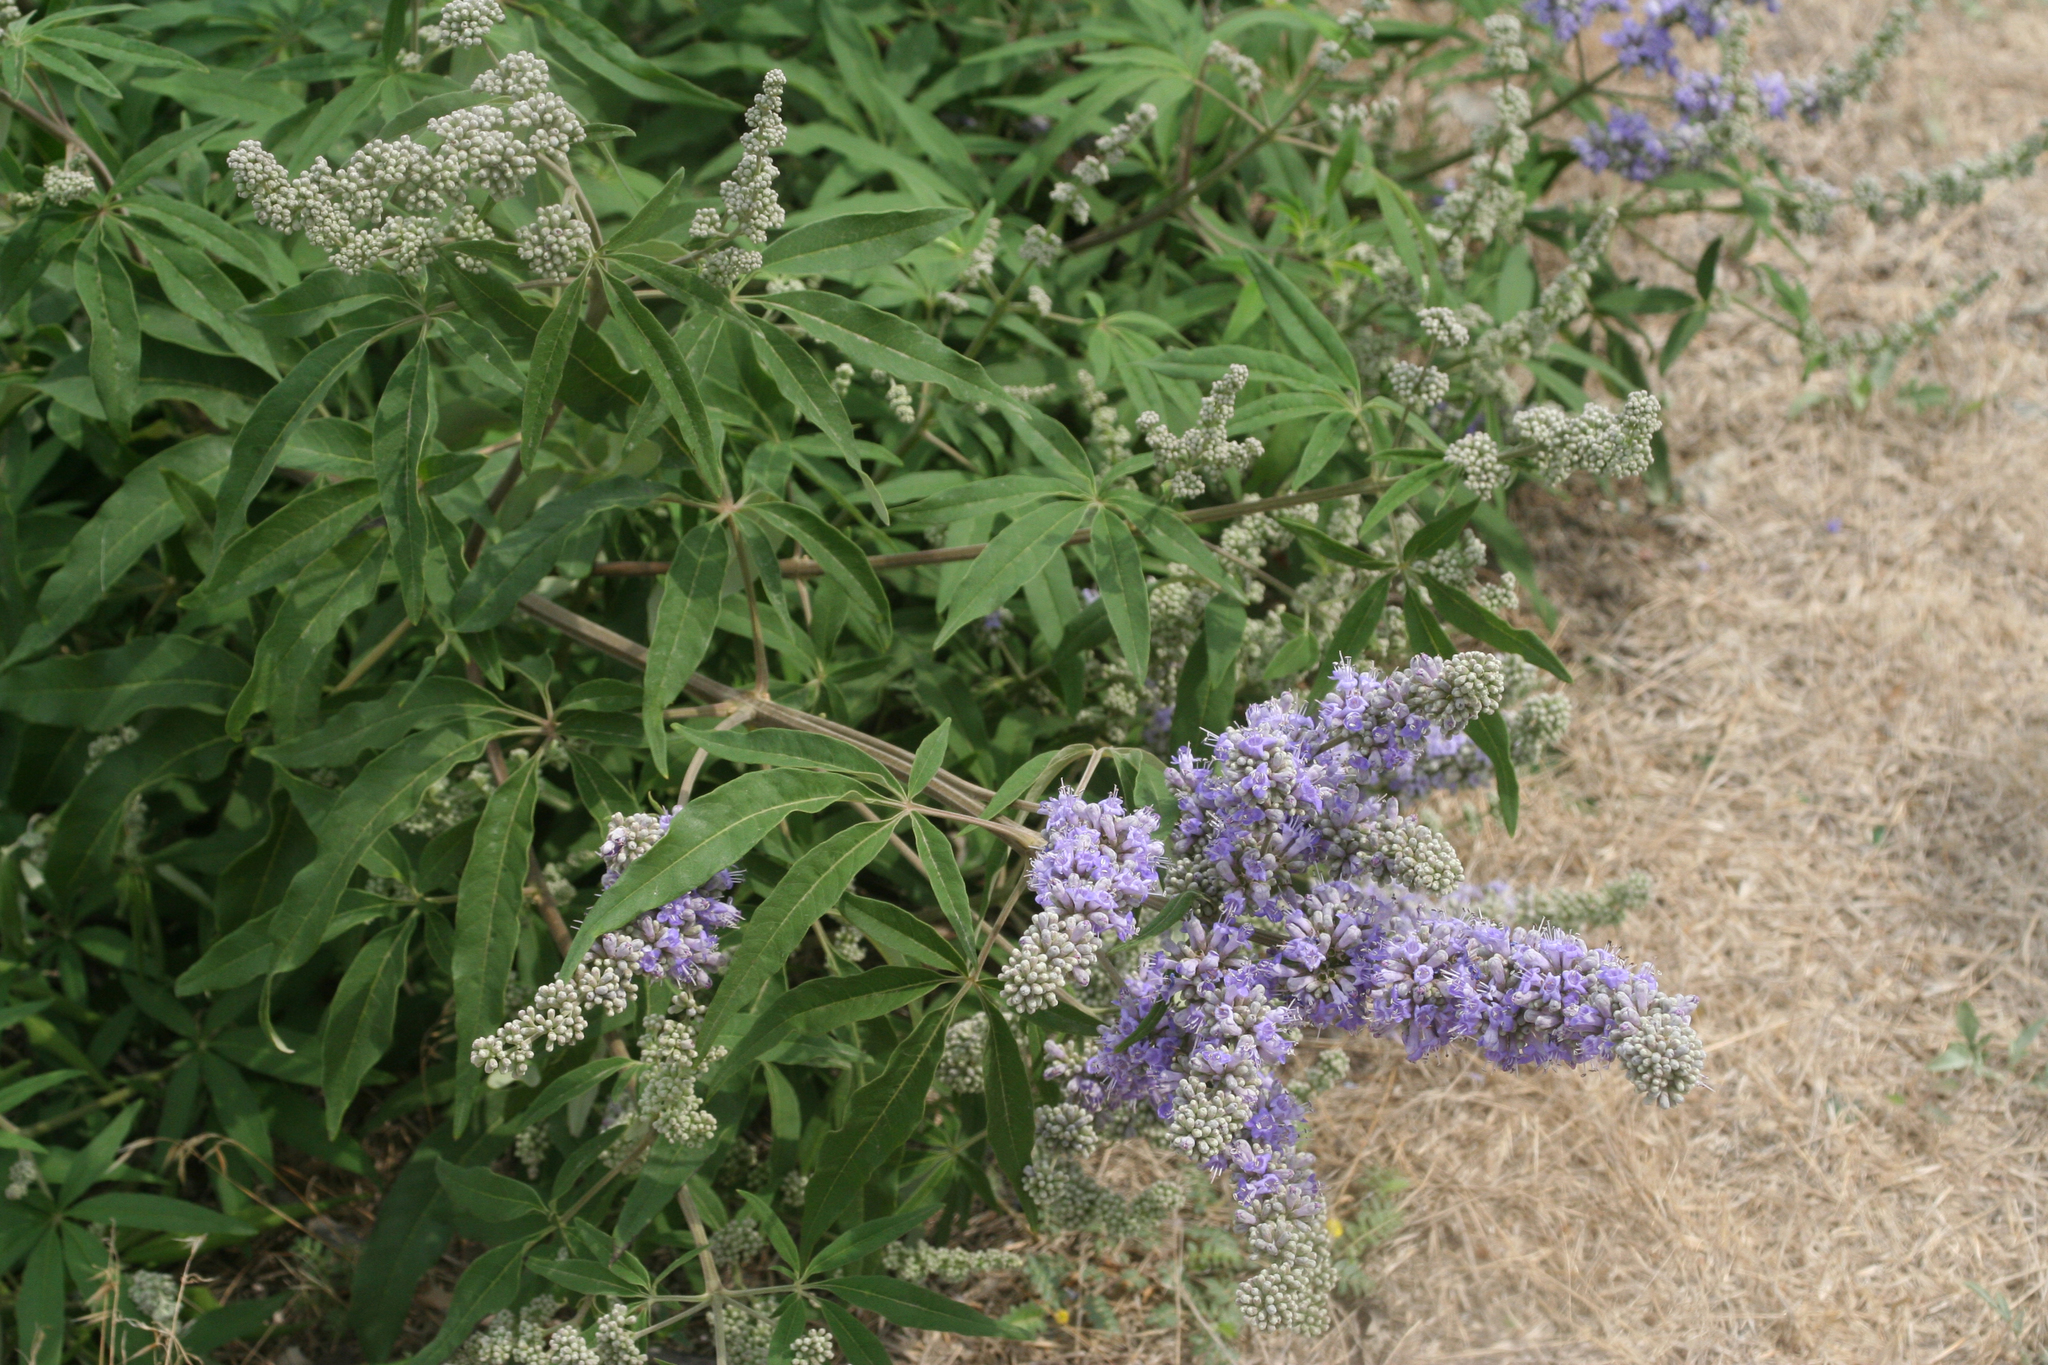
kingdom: Plantae
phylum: Tracheophyta
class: Magnoliopsida
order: Lamiales
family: Lamiaceae
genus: Vitex
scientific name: Vitex agnus-castus
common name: Chasteberry
